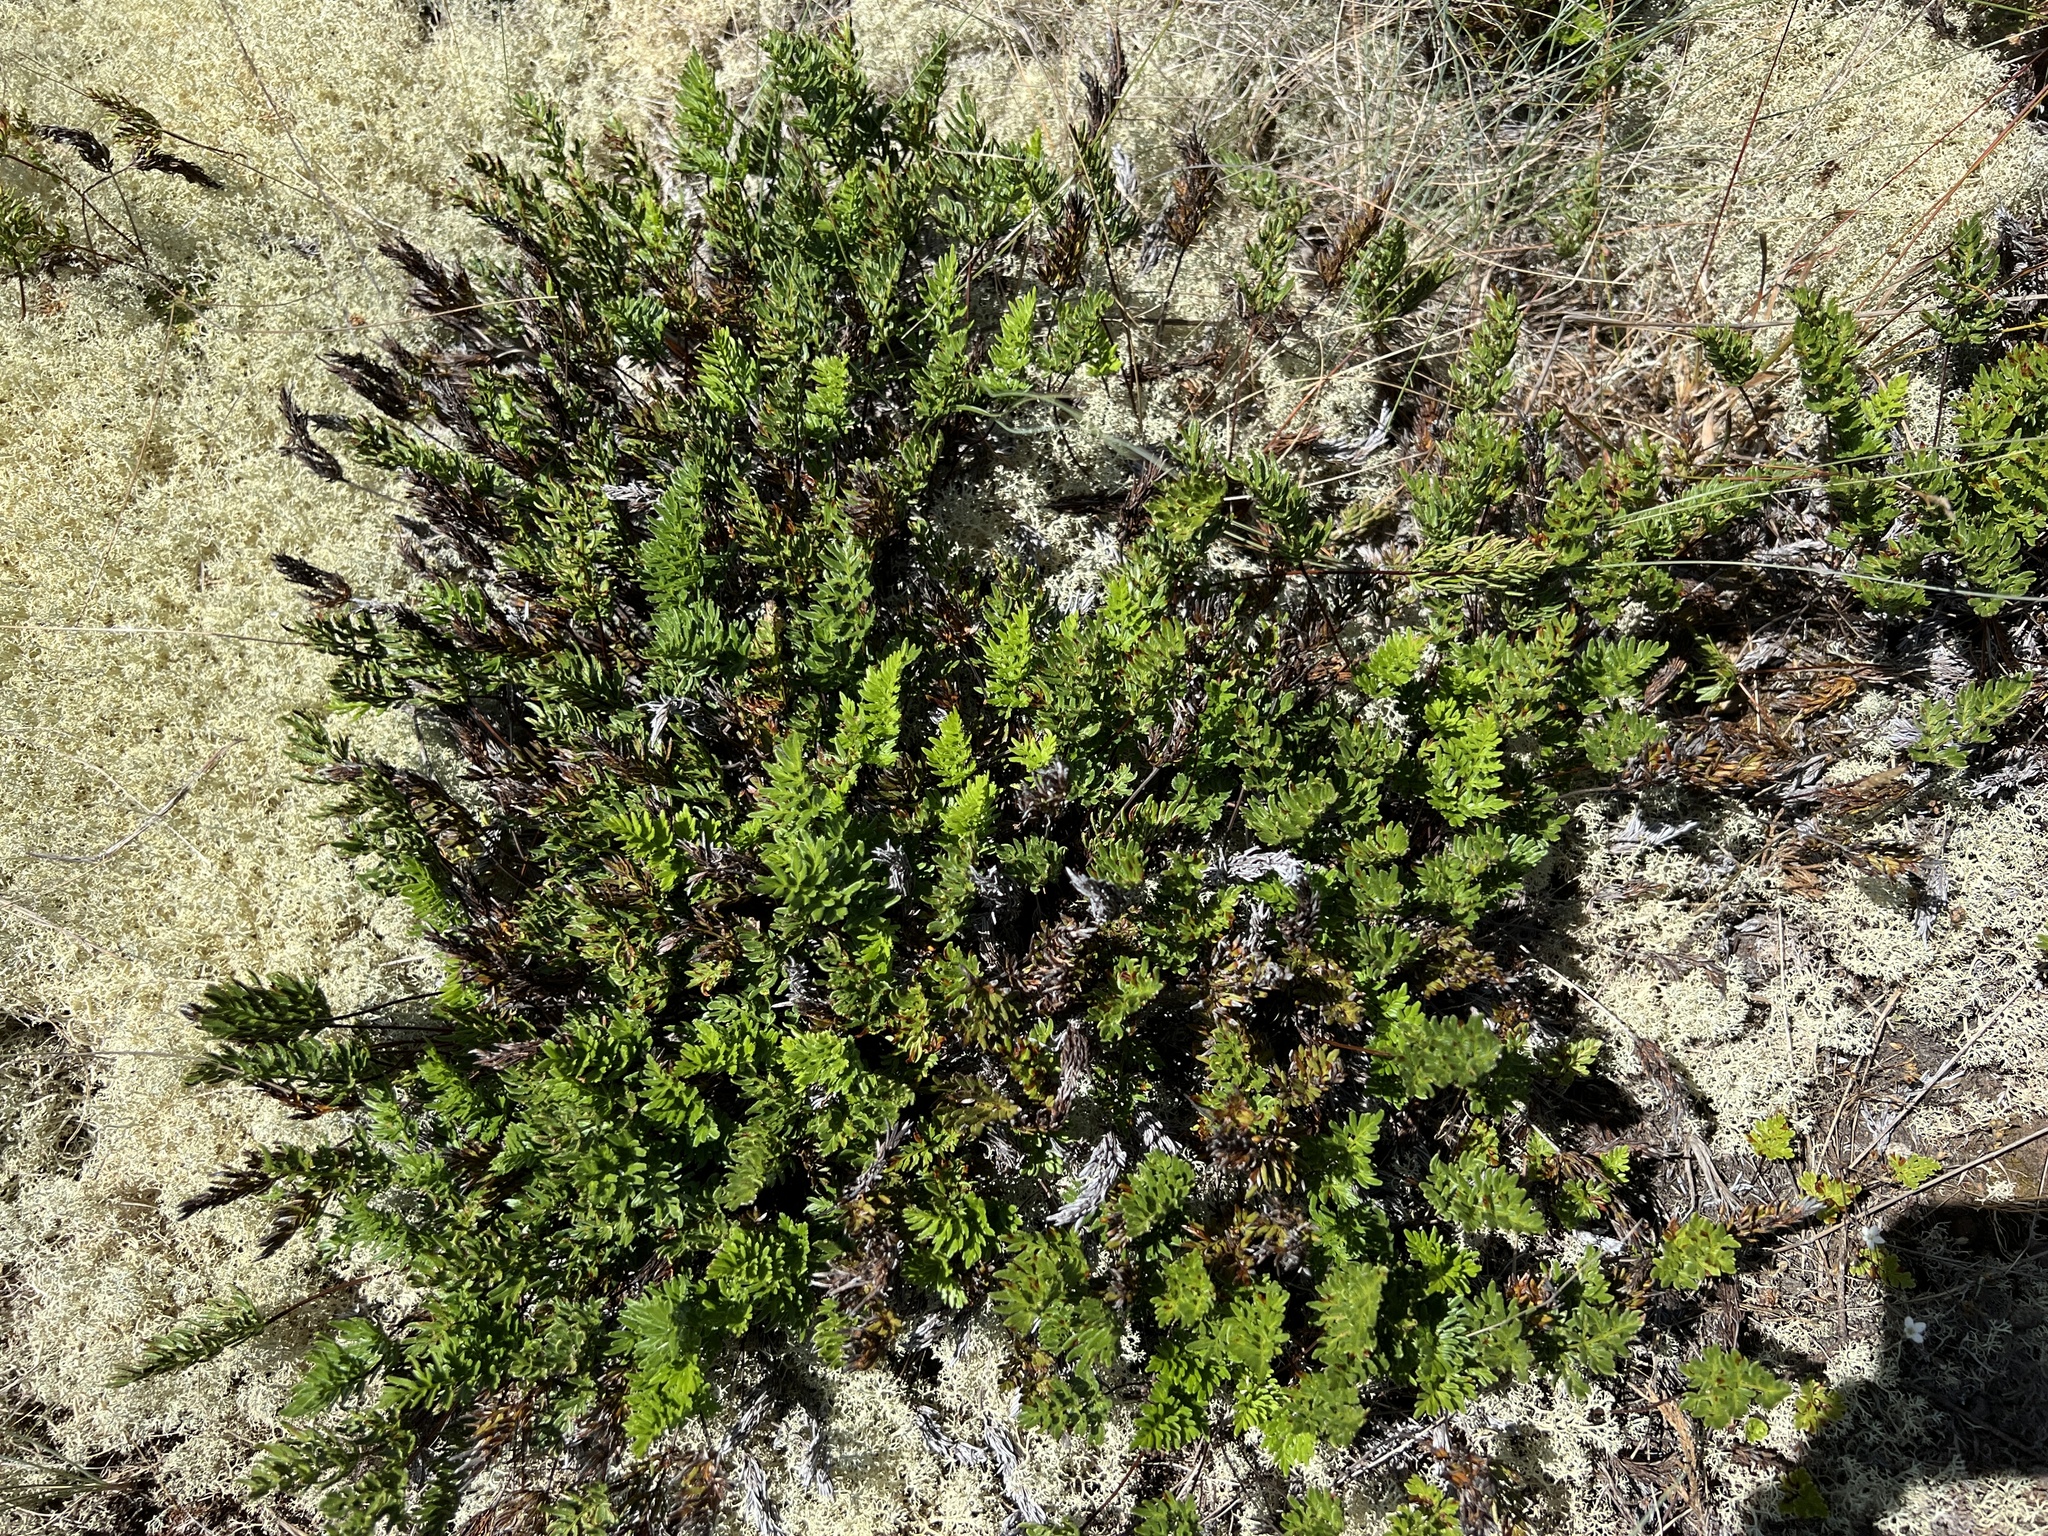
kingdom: Plantae
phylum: Tracheophyta
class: Polypodiopsida
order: Polypodiales
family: Pteridaceae
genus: Aspidotis
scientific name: Aspidotis densa
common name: Indian's dream
